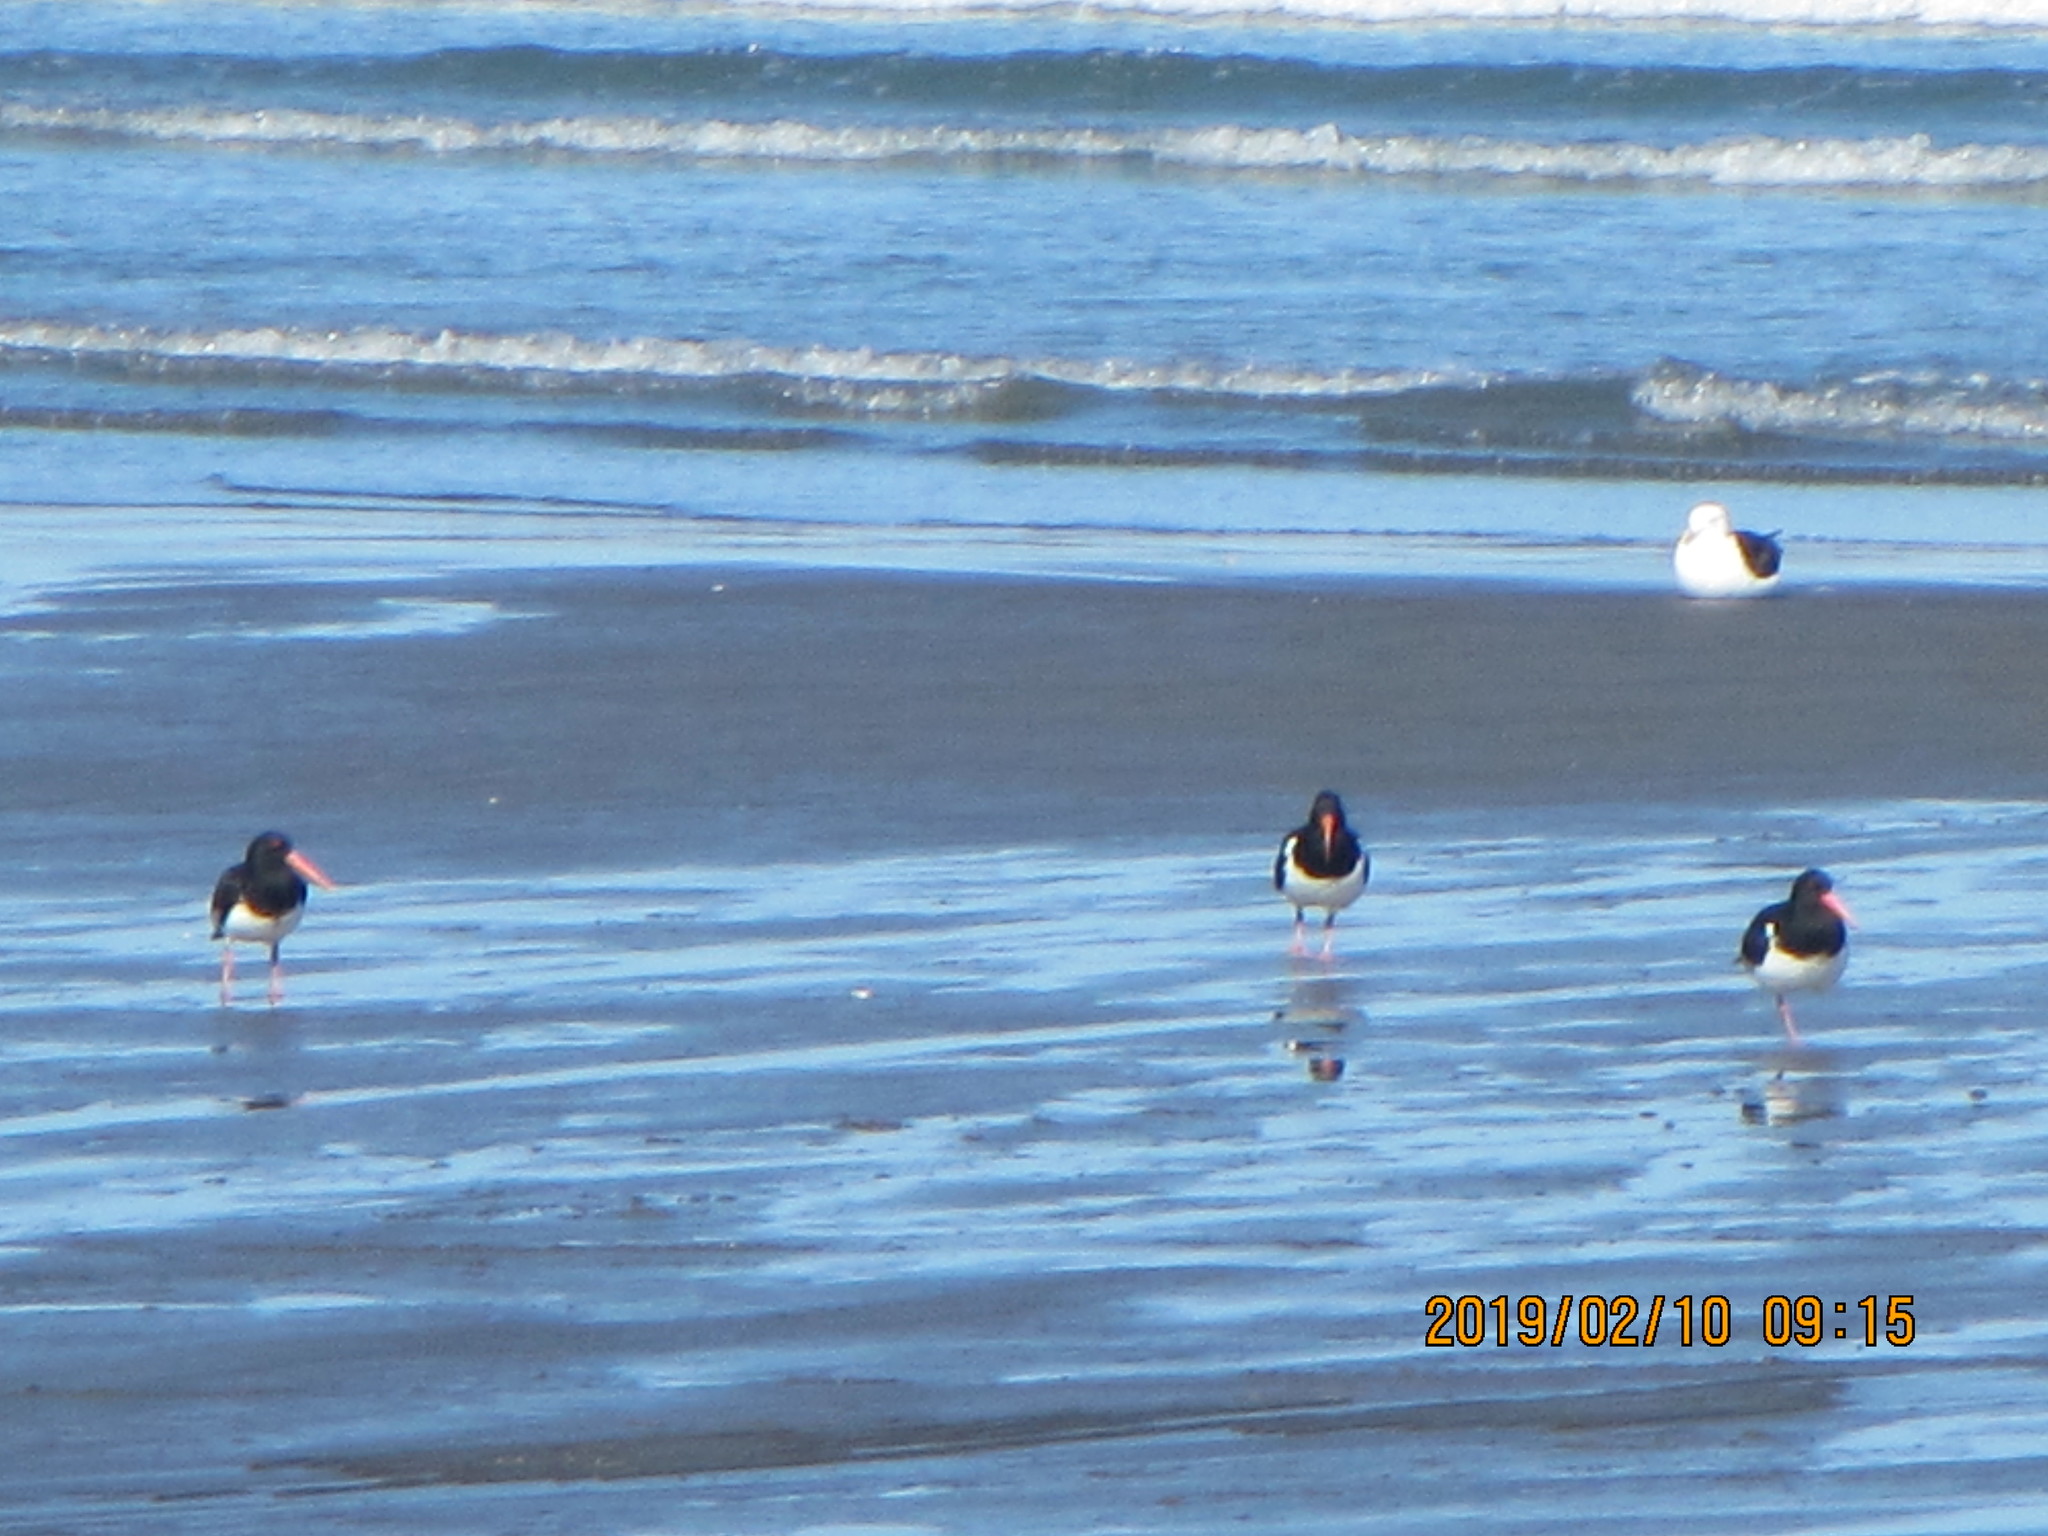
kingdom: Animalia
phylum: Chordata
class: Aves
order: Charadriiformes
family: Haematopodidae
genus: Haematopus
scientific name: Haematopus finschi
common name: South island oystercatcher
